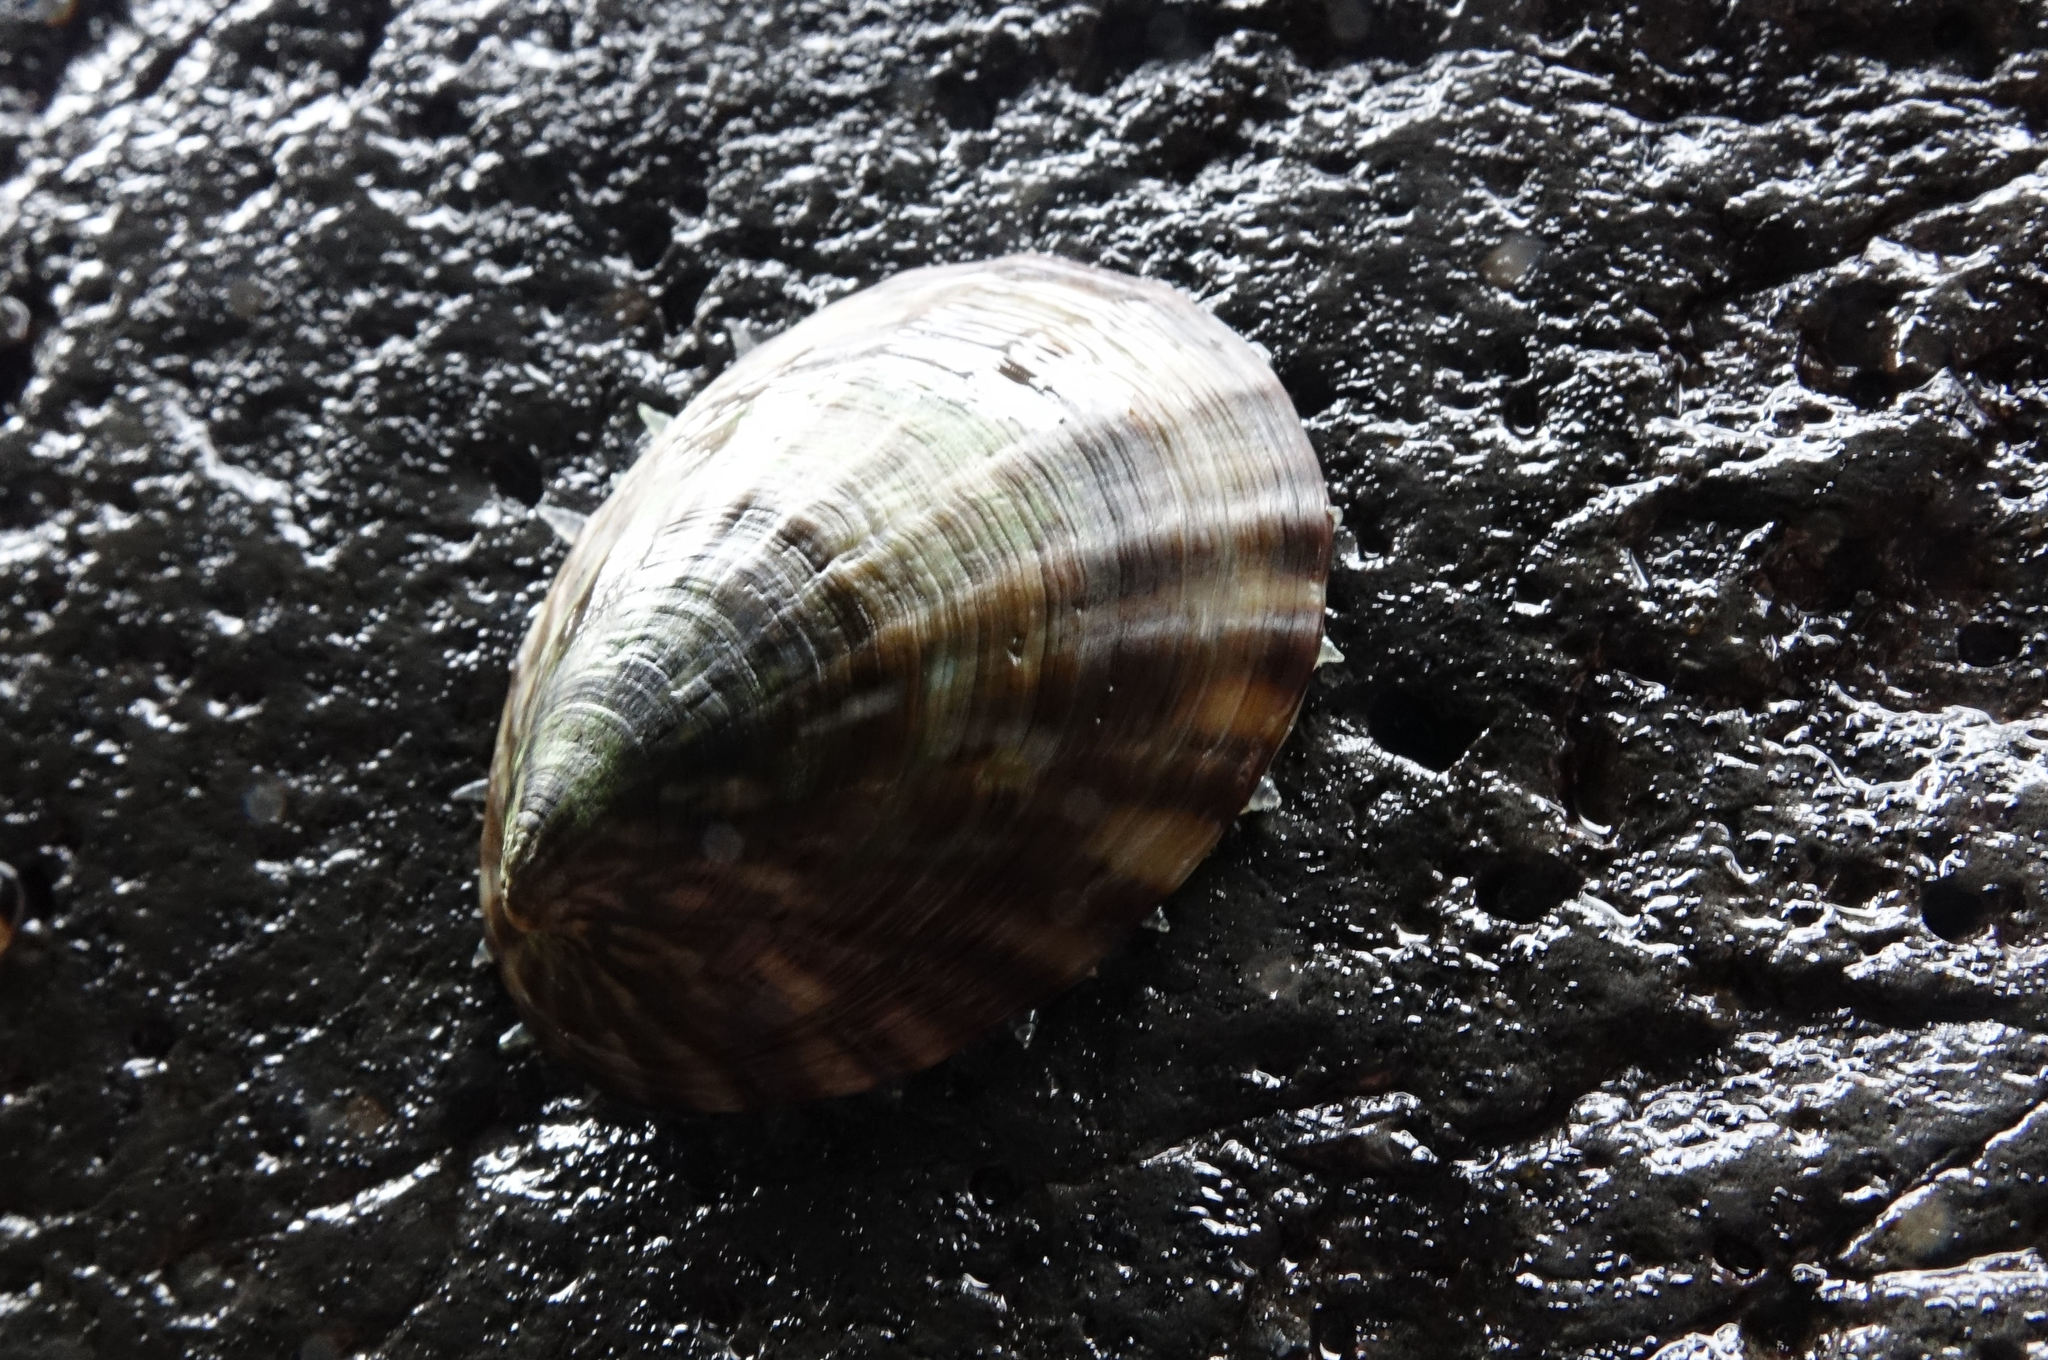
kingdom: Animalia
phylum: Mollusca
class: Gastropoda
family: Nacellidae
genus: Cellana
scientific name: Cellana strigilis
